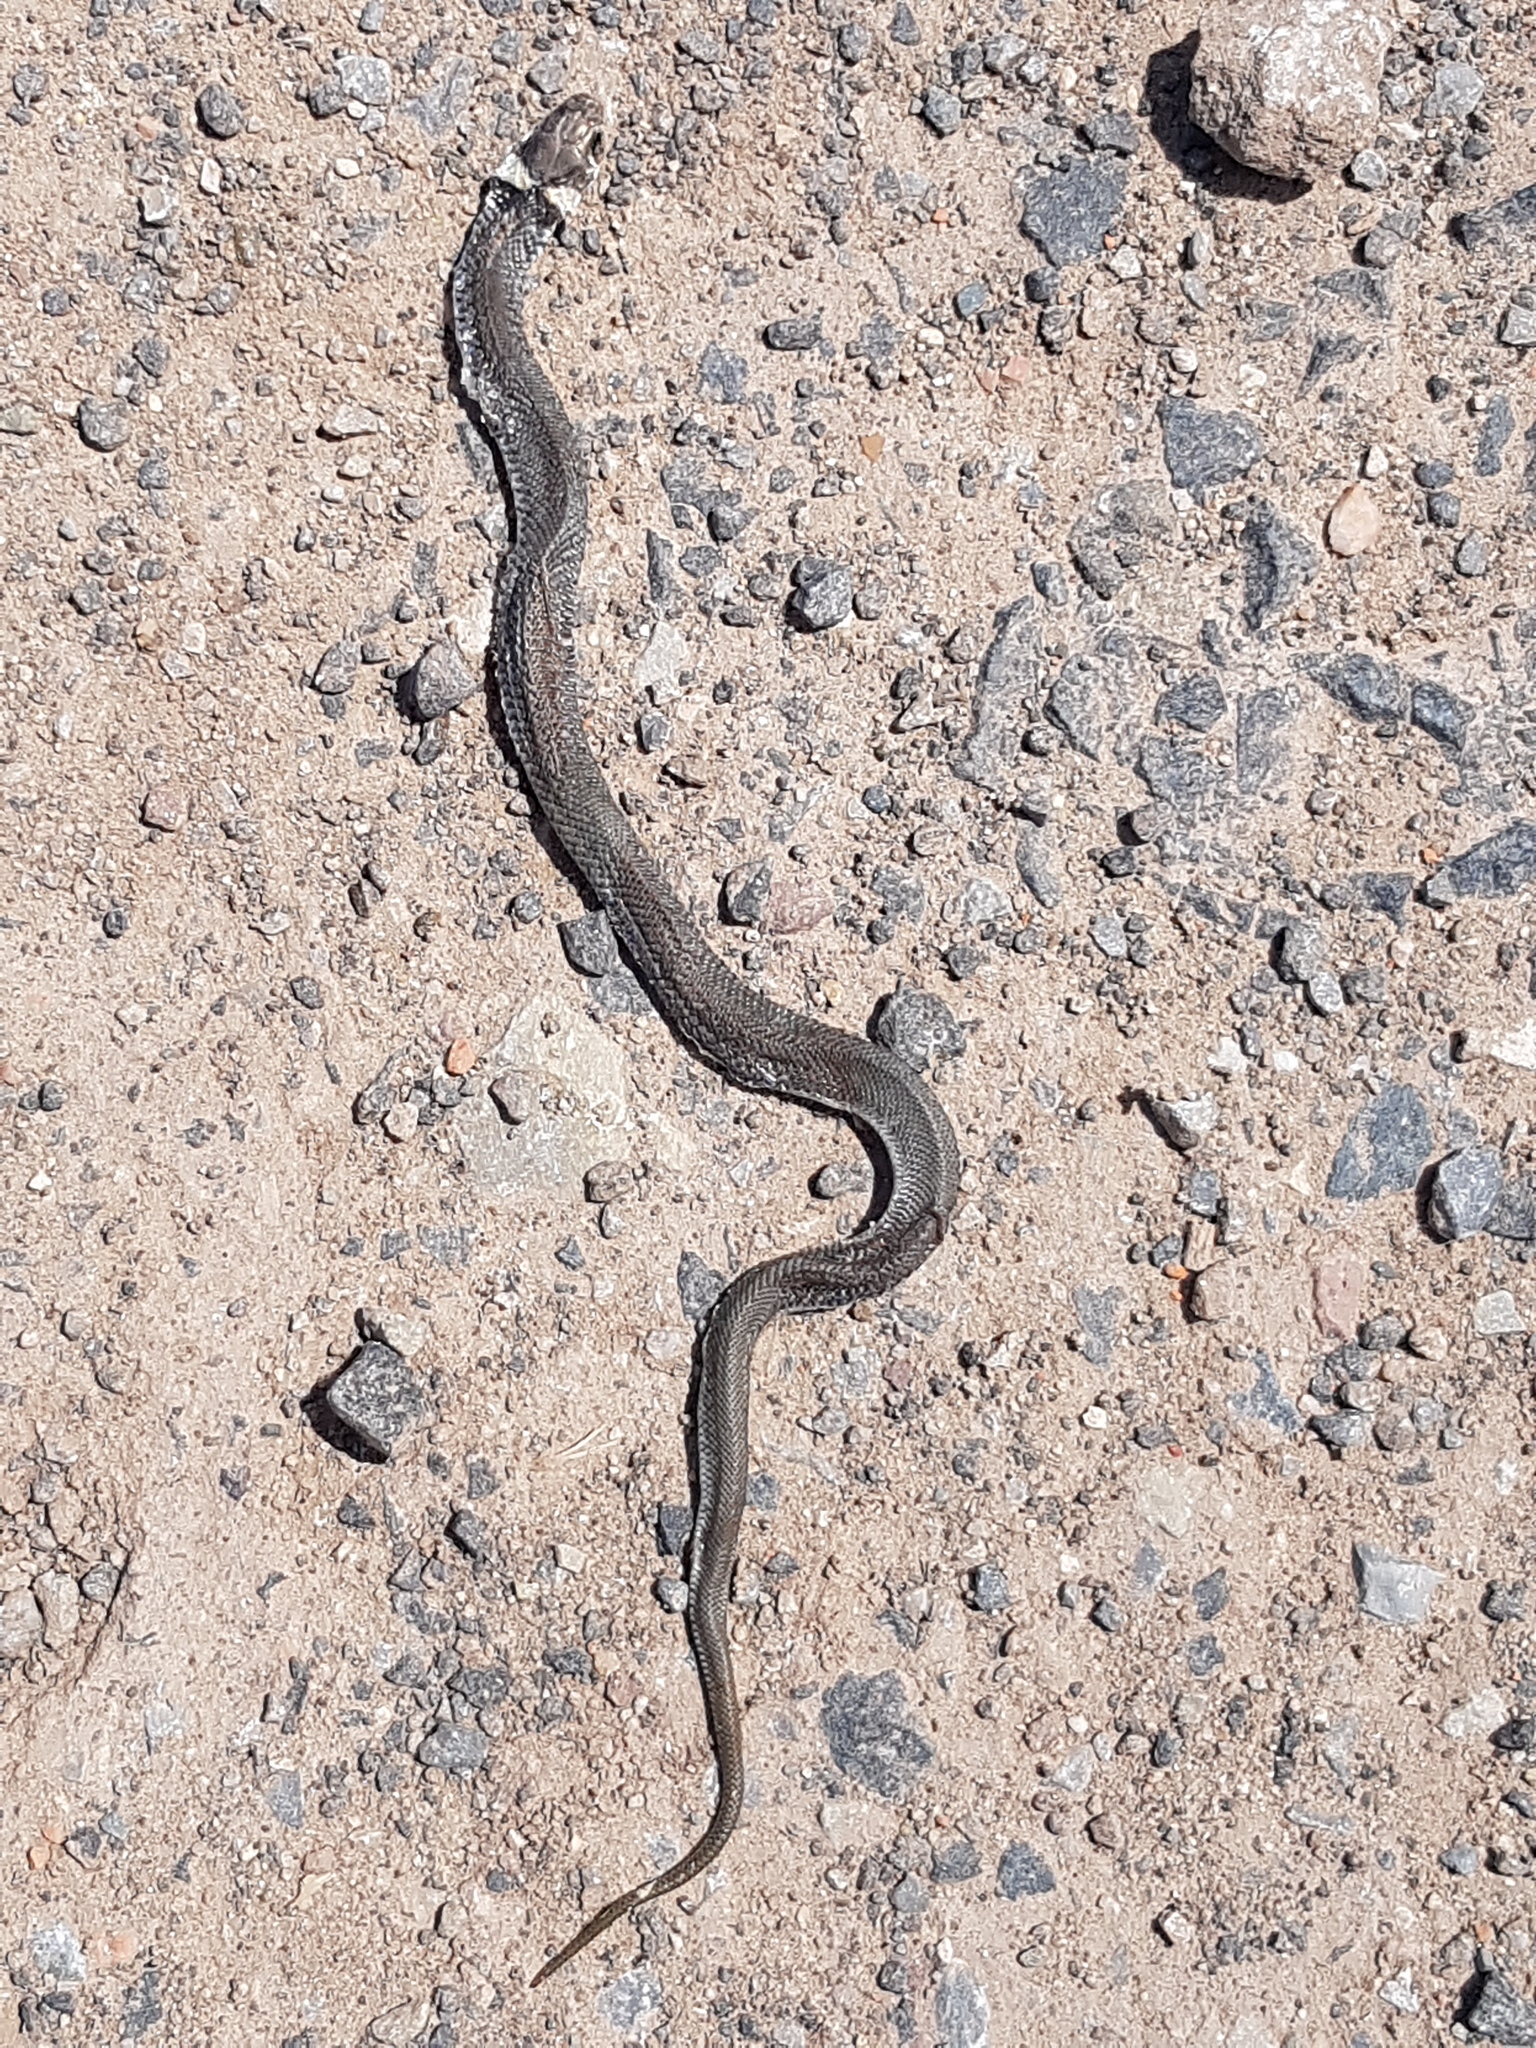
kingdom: Animalia
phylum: Chordata
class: Squamata
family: Colubridae
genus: Natrix
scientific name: Natrix natrix
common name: Grass snake
